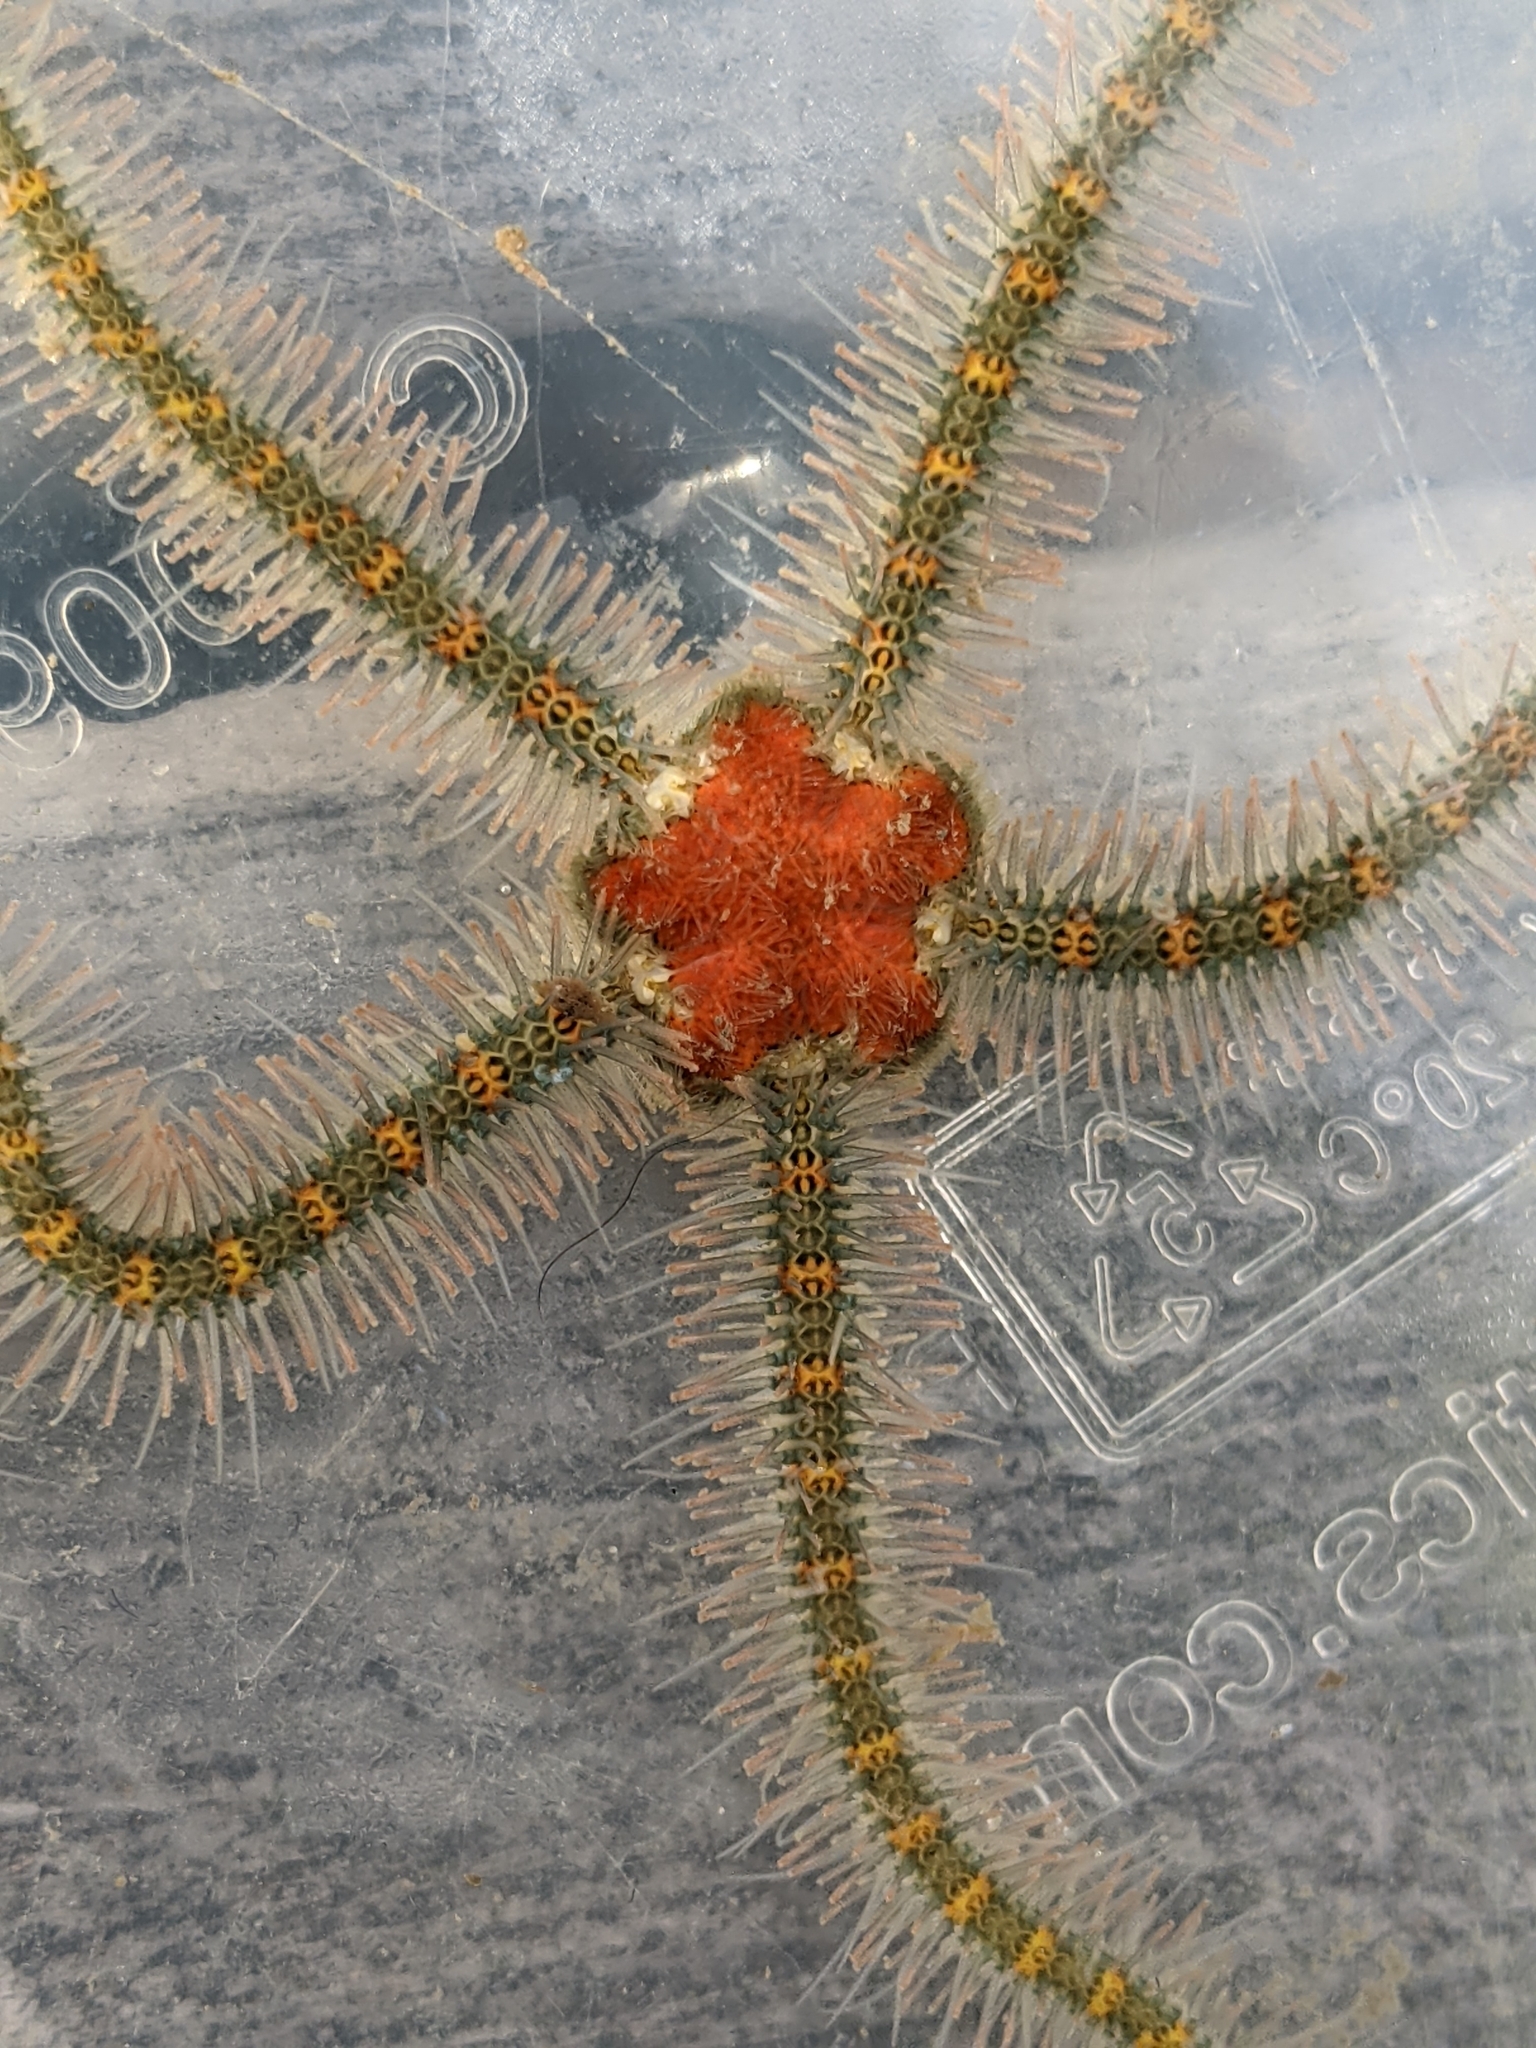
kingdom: Animalia
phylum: Echinodermata
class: Ophiuroidea
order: Amphilepidida
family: Ophiotrichidae
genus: Ophiothrix
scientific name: Ophiothrix spiculata
